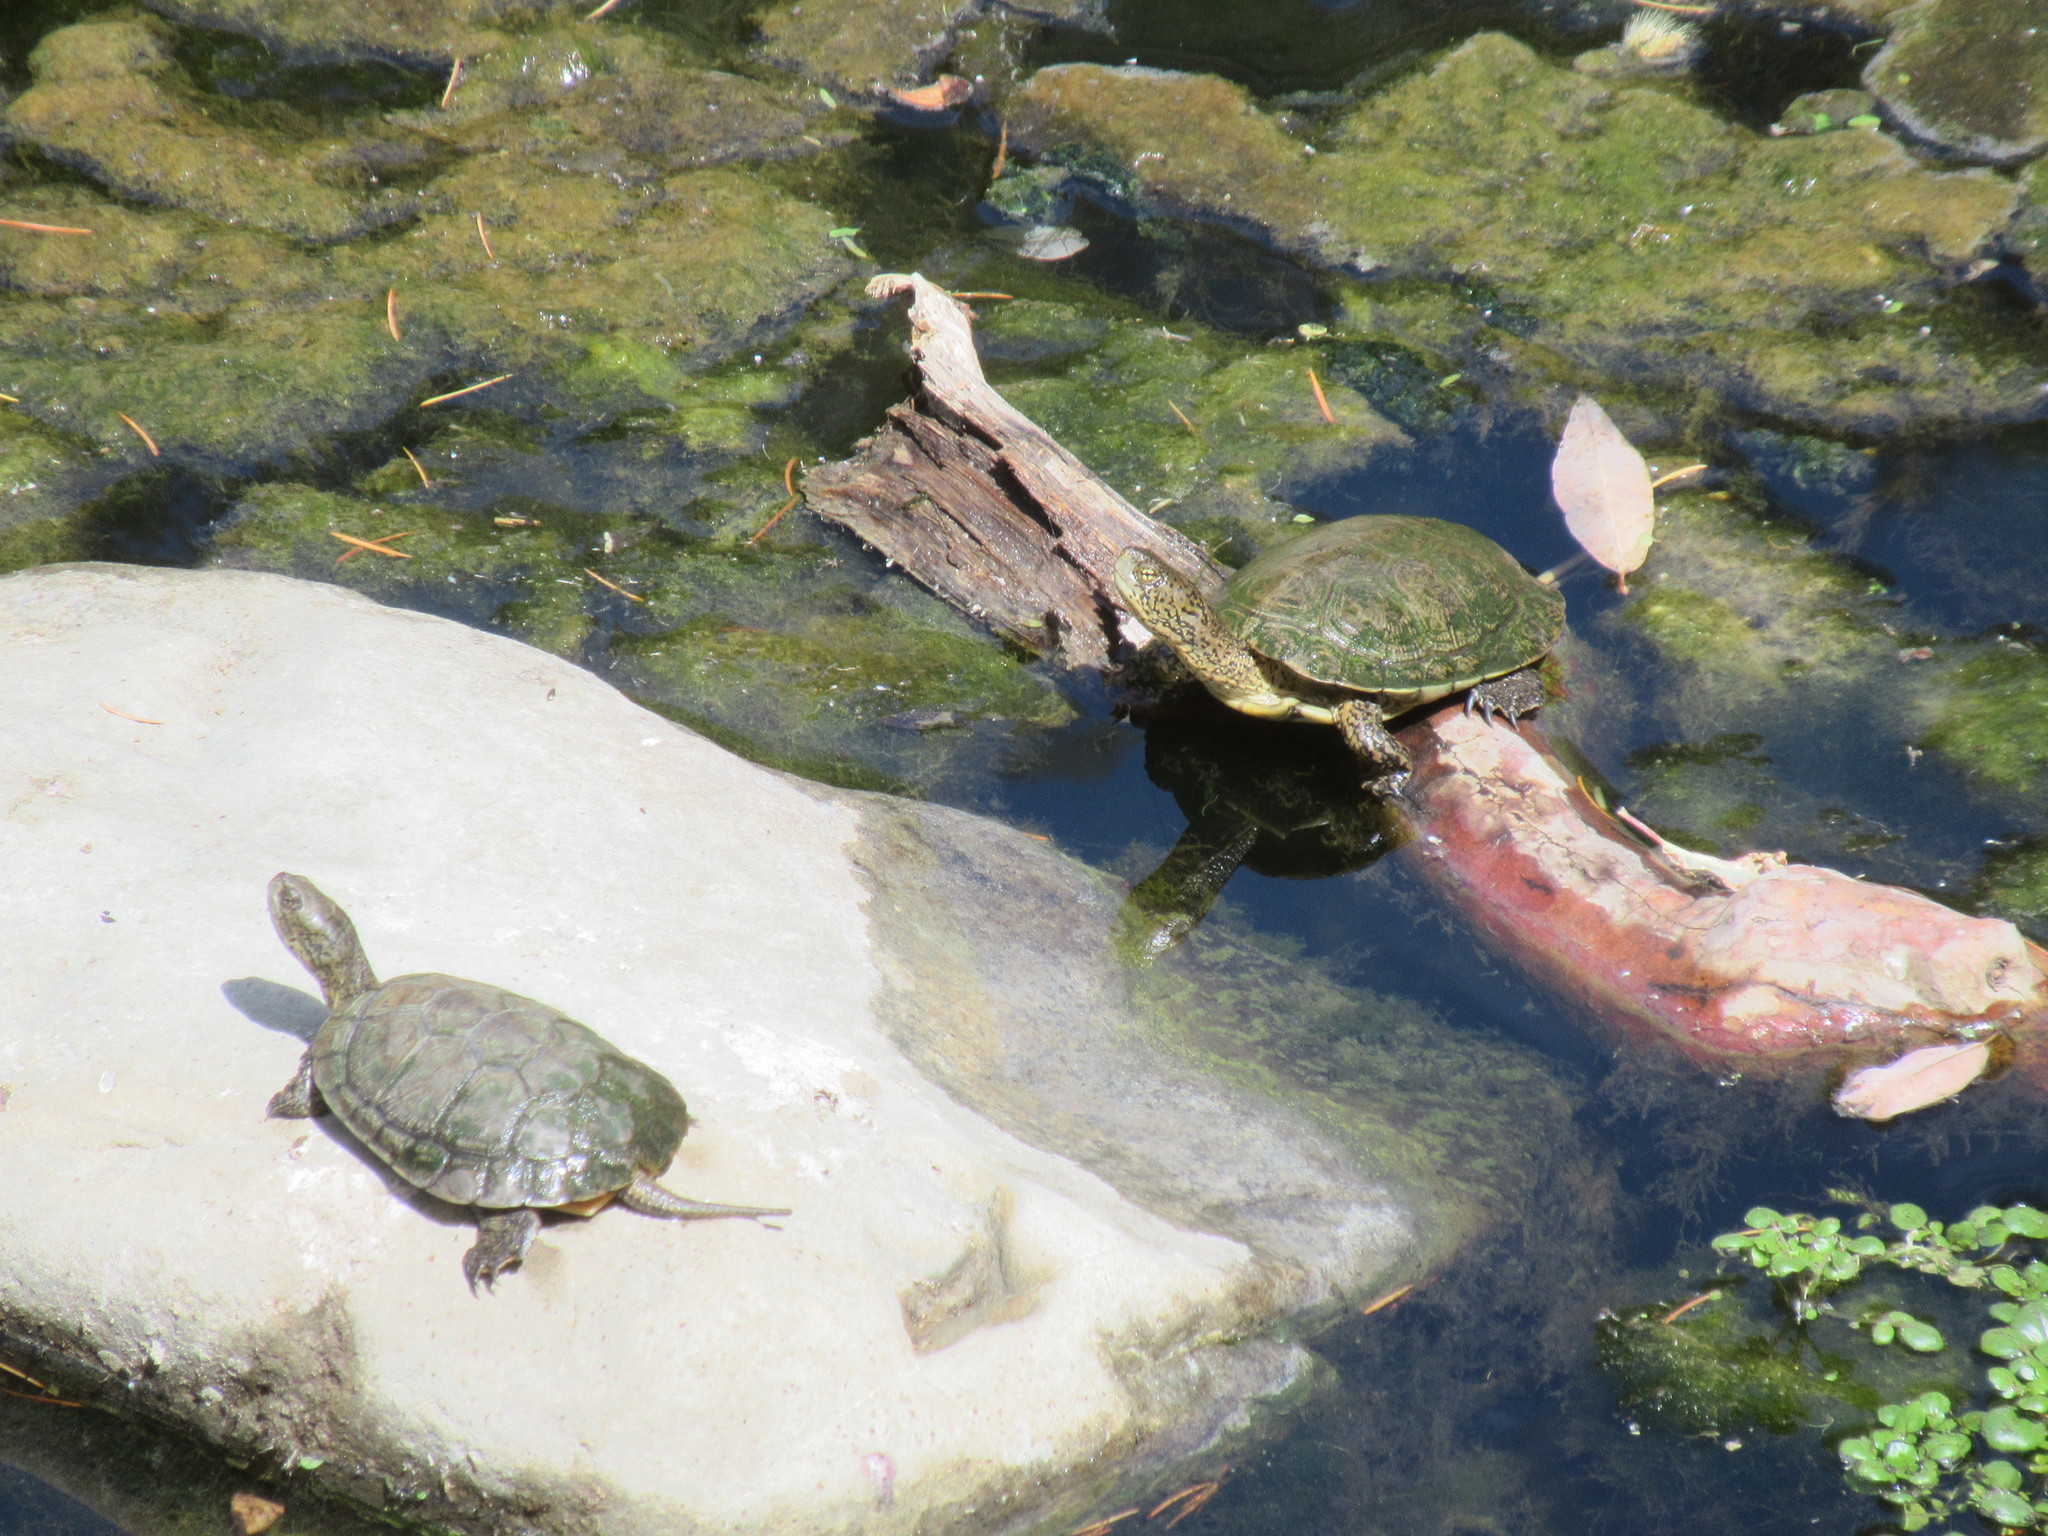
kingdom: Animalia
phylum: Chordata
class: Testudines
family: Emydidae
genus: Actinemys
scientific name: Actinemys marmorata
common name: Western pond turtle
